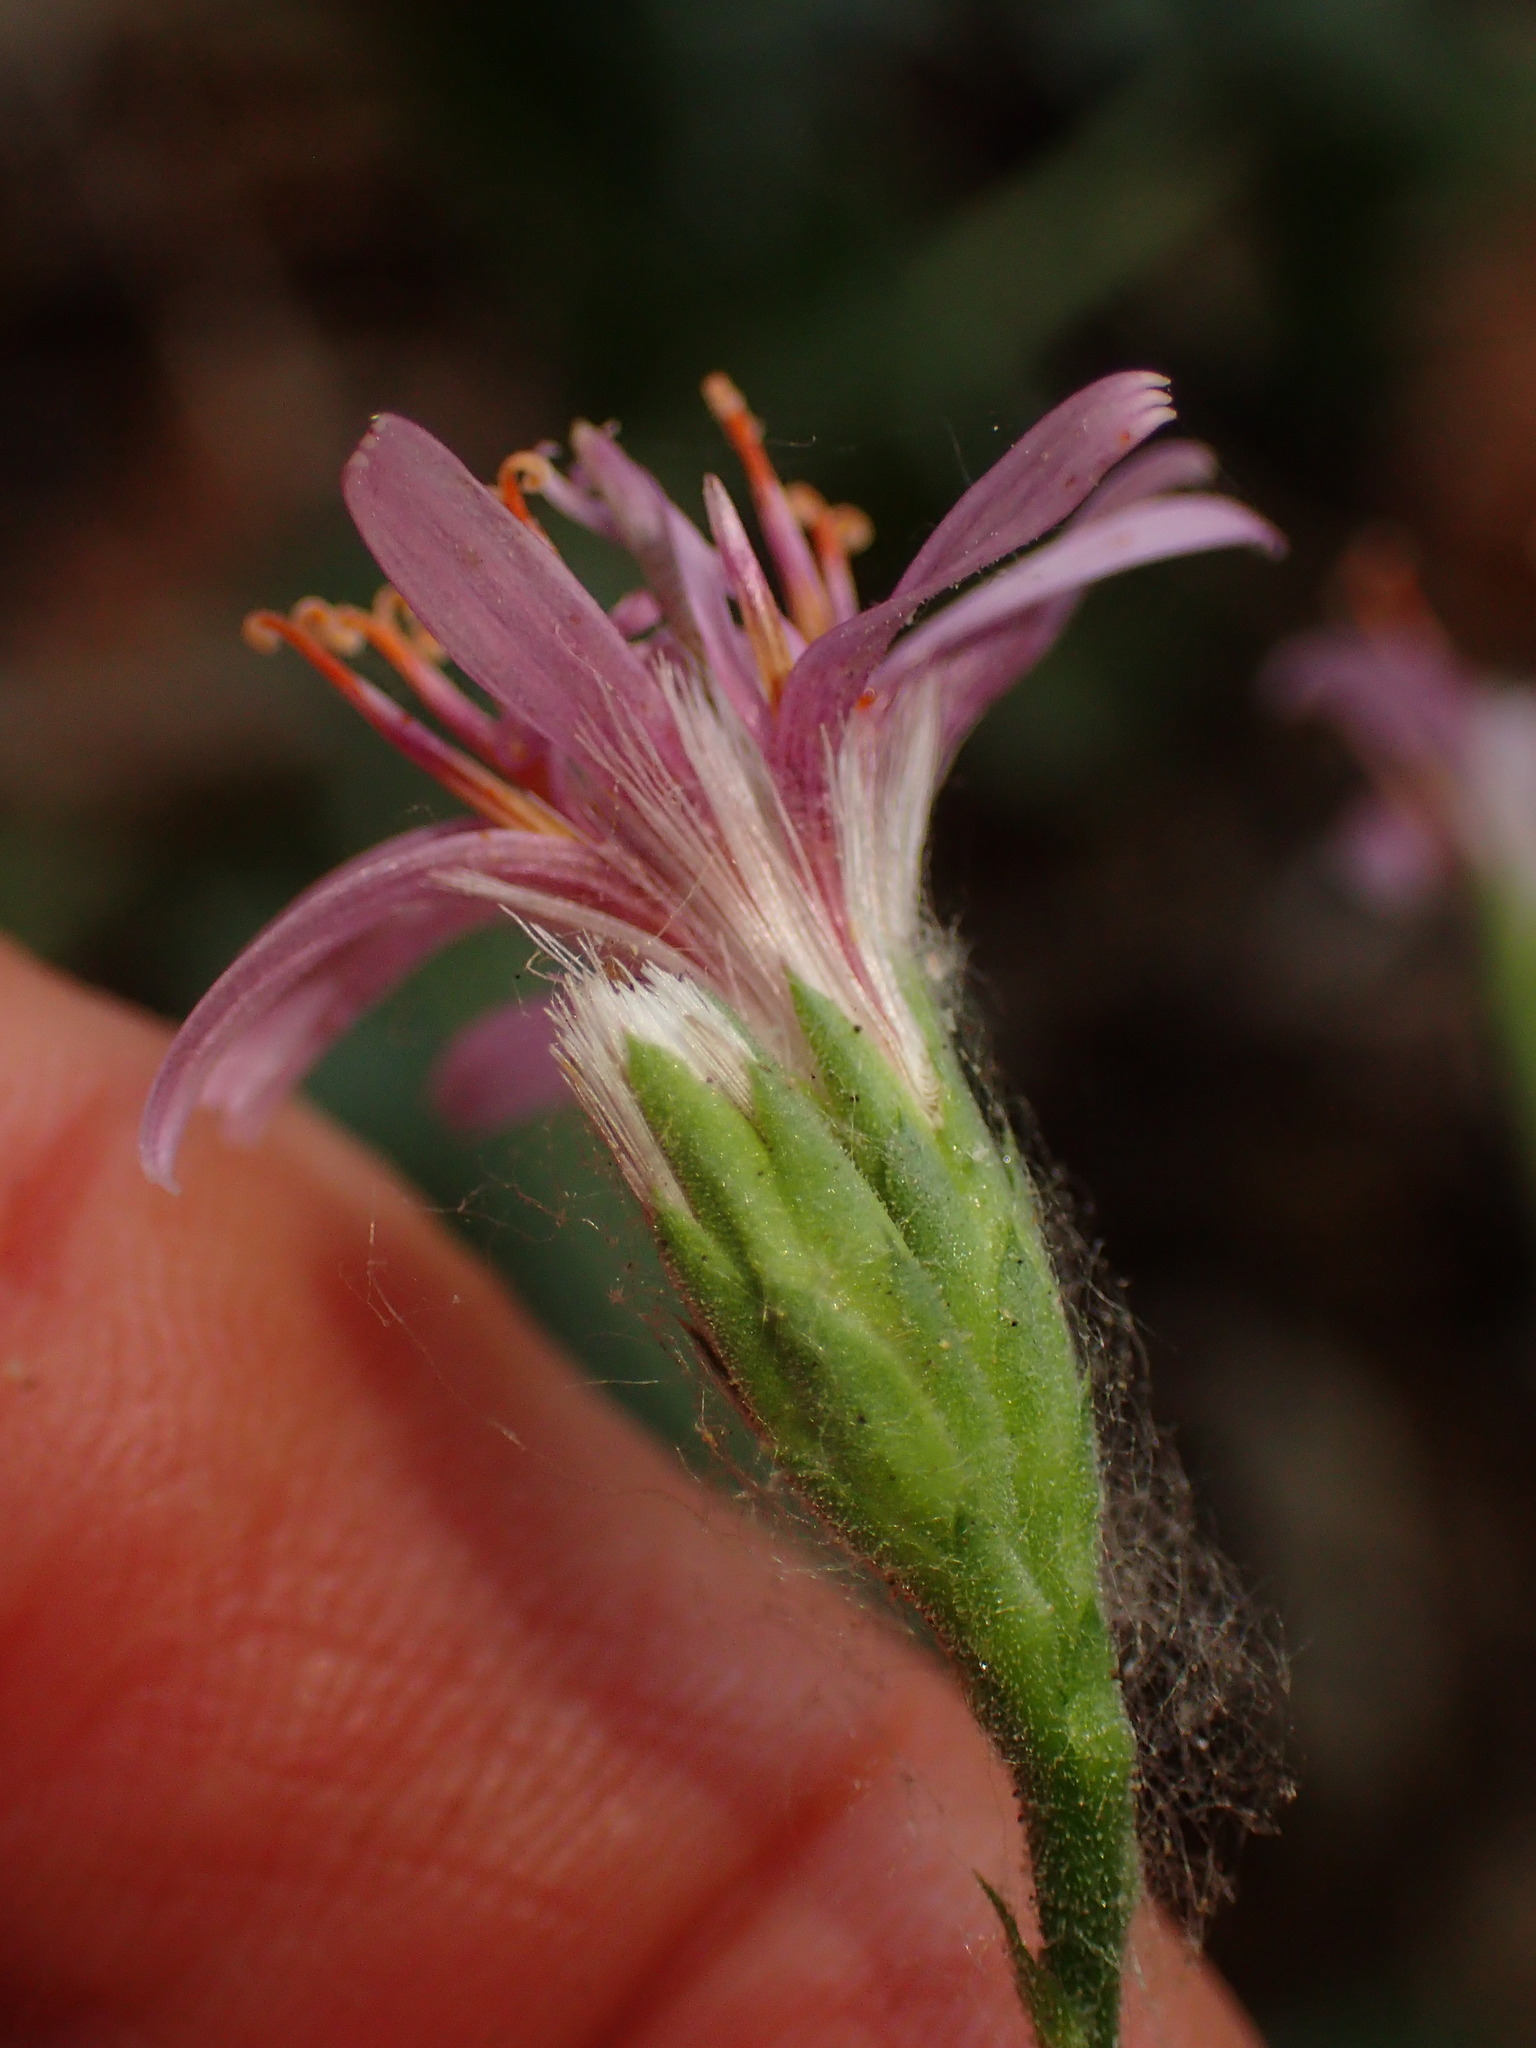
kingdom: Plantae
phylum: Tracheophyta
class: Magnoliopsida
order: Asterales
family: Asteraceae
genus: Acourtia
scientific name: Acourtia microcephala
